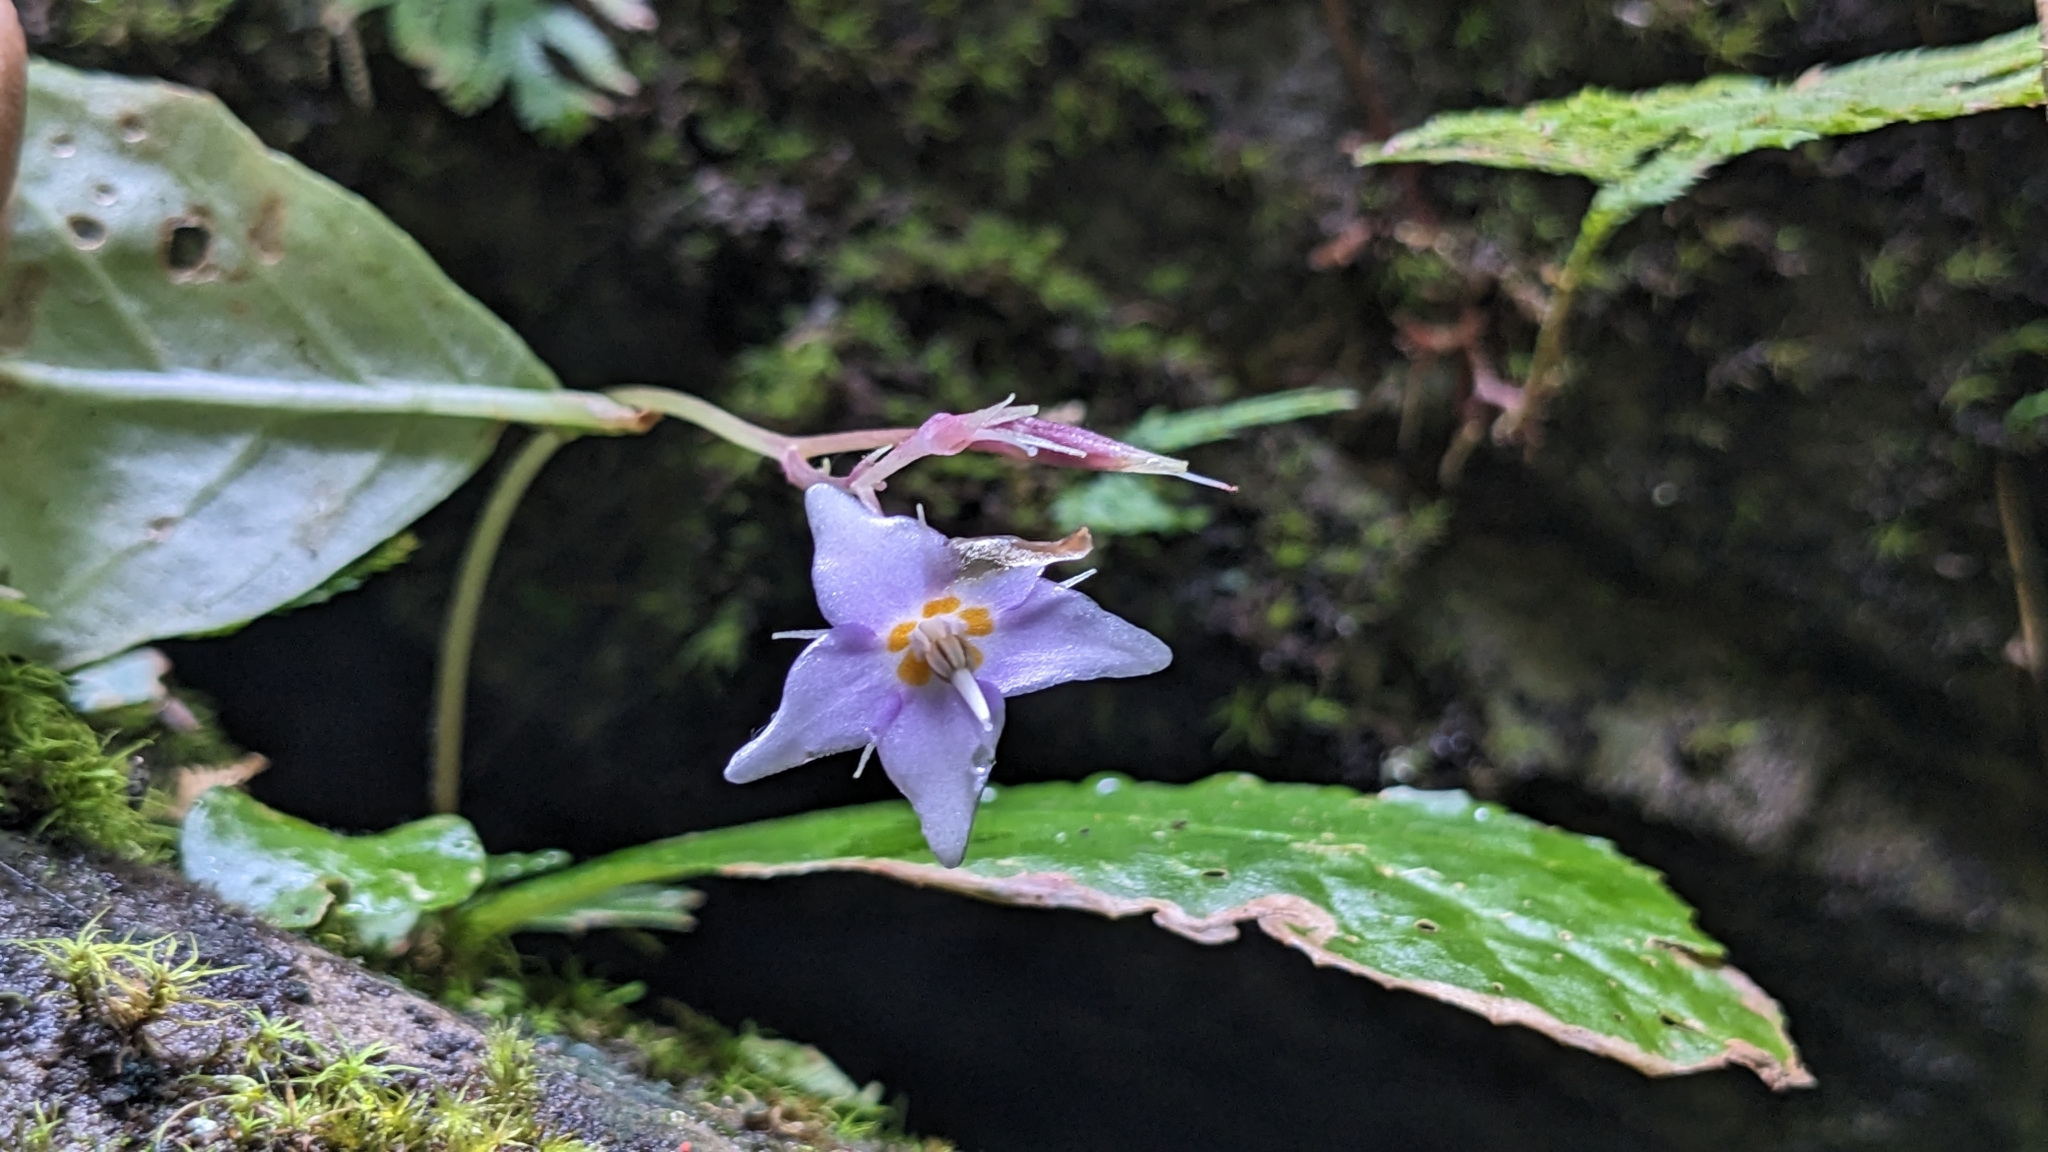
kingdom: Plantae
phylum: Tracheophyta
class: Magnoliopsida
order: Lamiales
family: Gesneriaceae
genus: Conandron
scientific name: Conandron ramondioides
